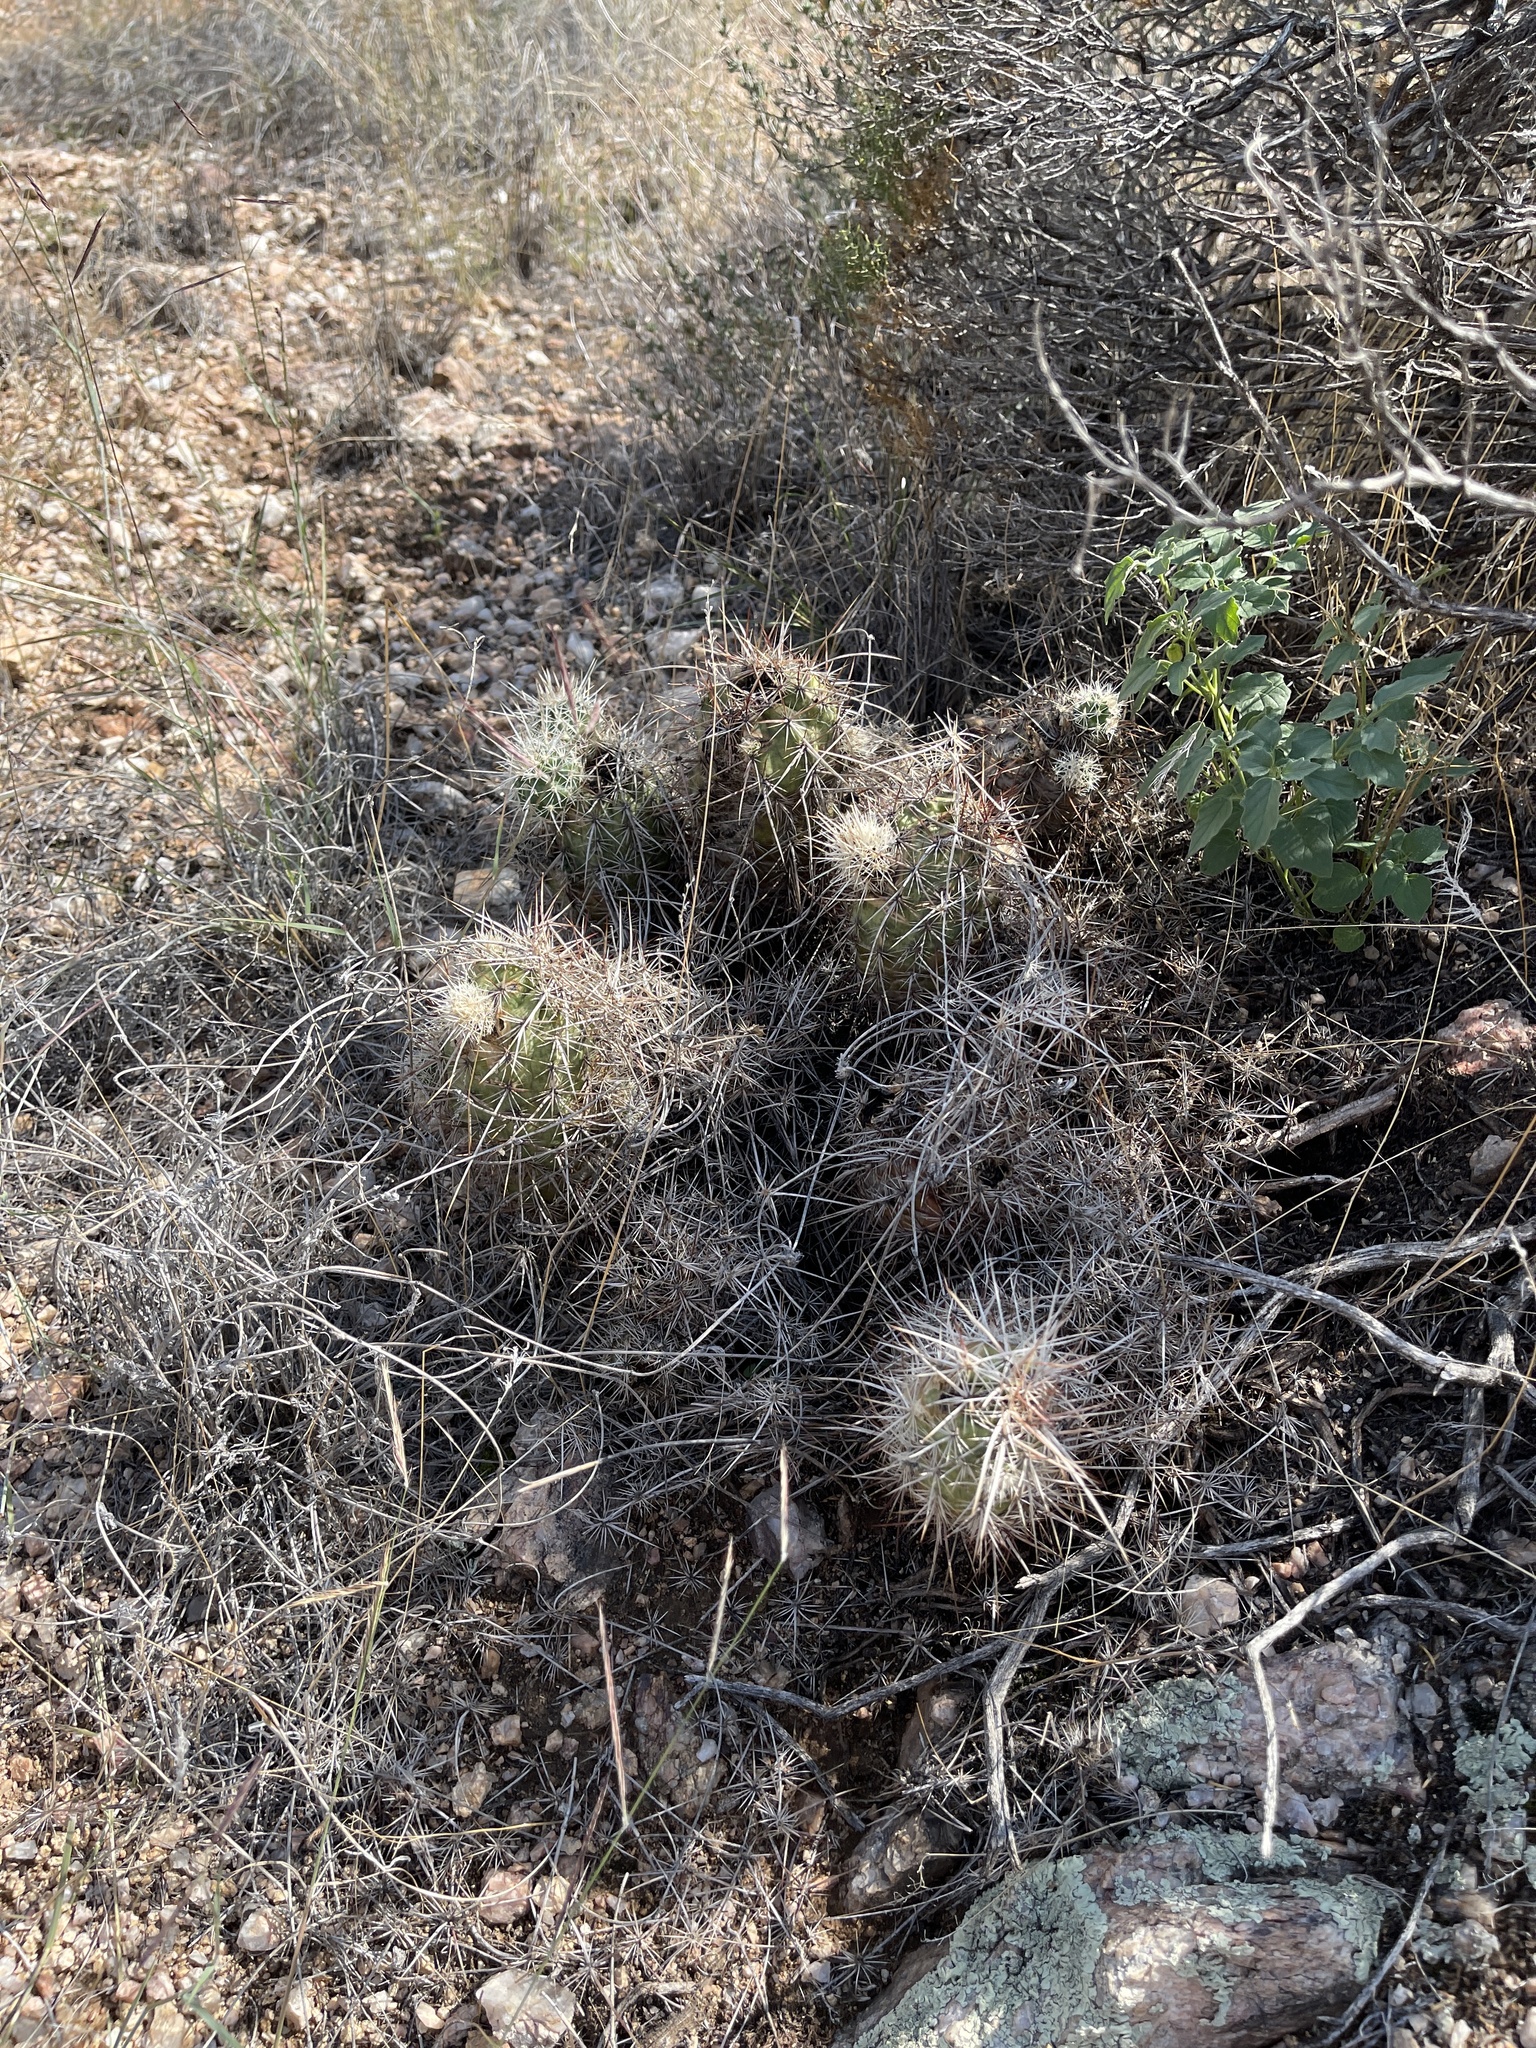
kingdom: Plantae
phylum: Tracheophyta
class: Magnoliopsida
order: Caryophyllales
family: Cactaceae
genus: Echinocereus
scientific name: Echinocereus engelmannii
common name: Engelmann's hedgehog cactus
